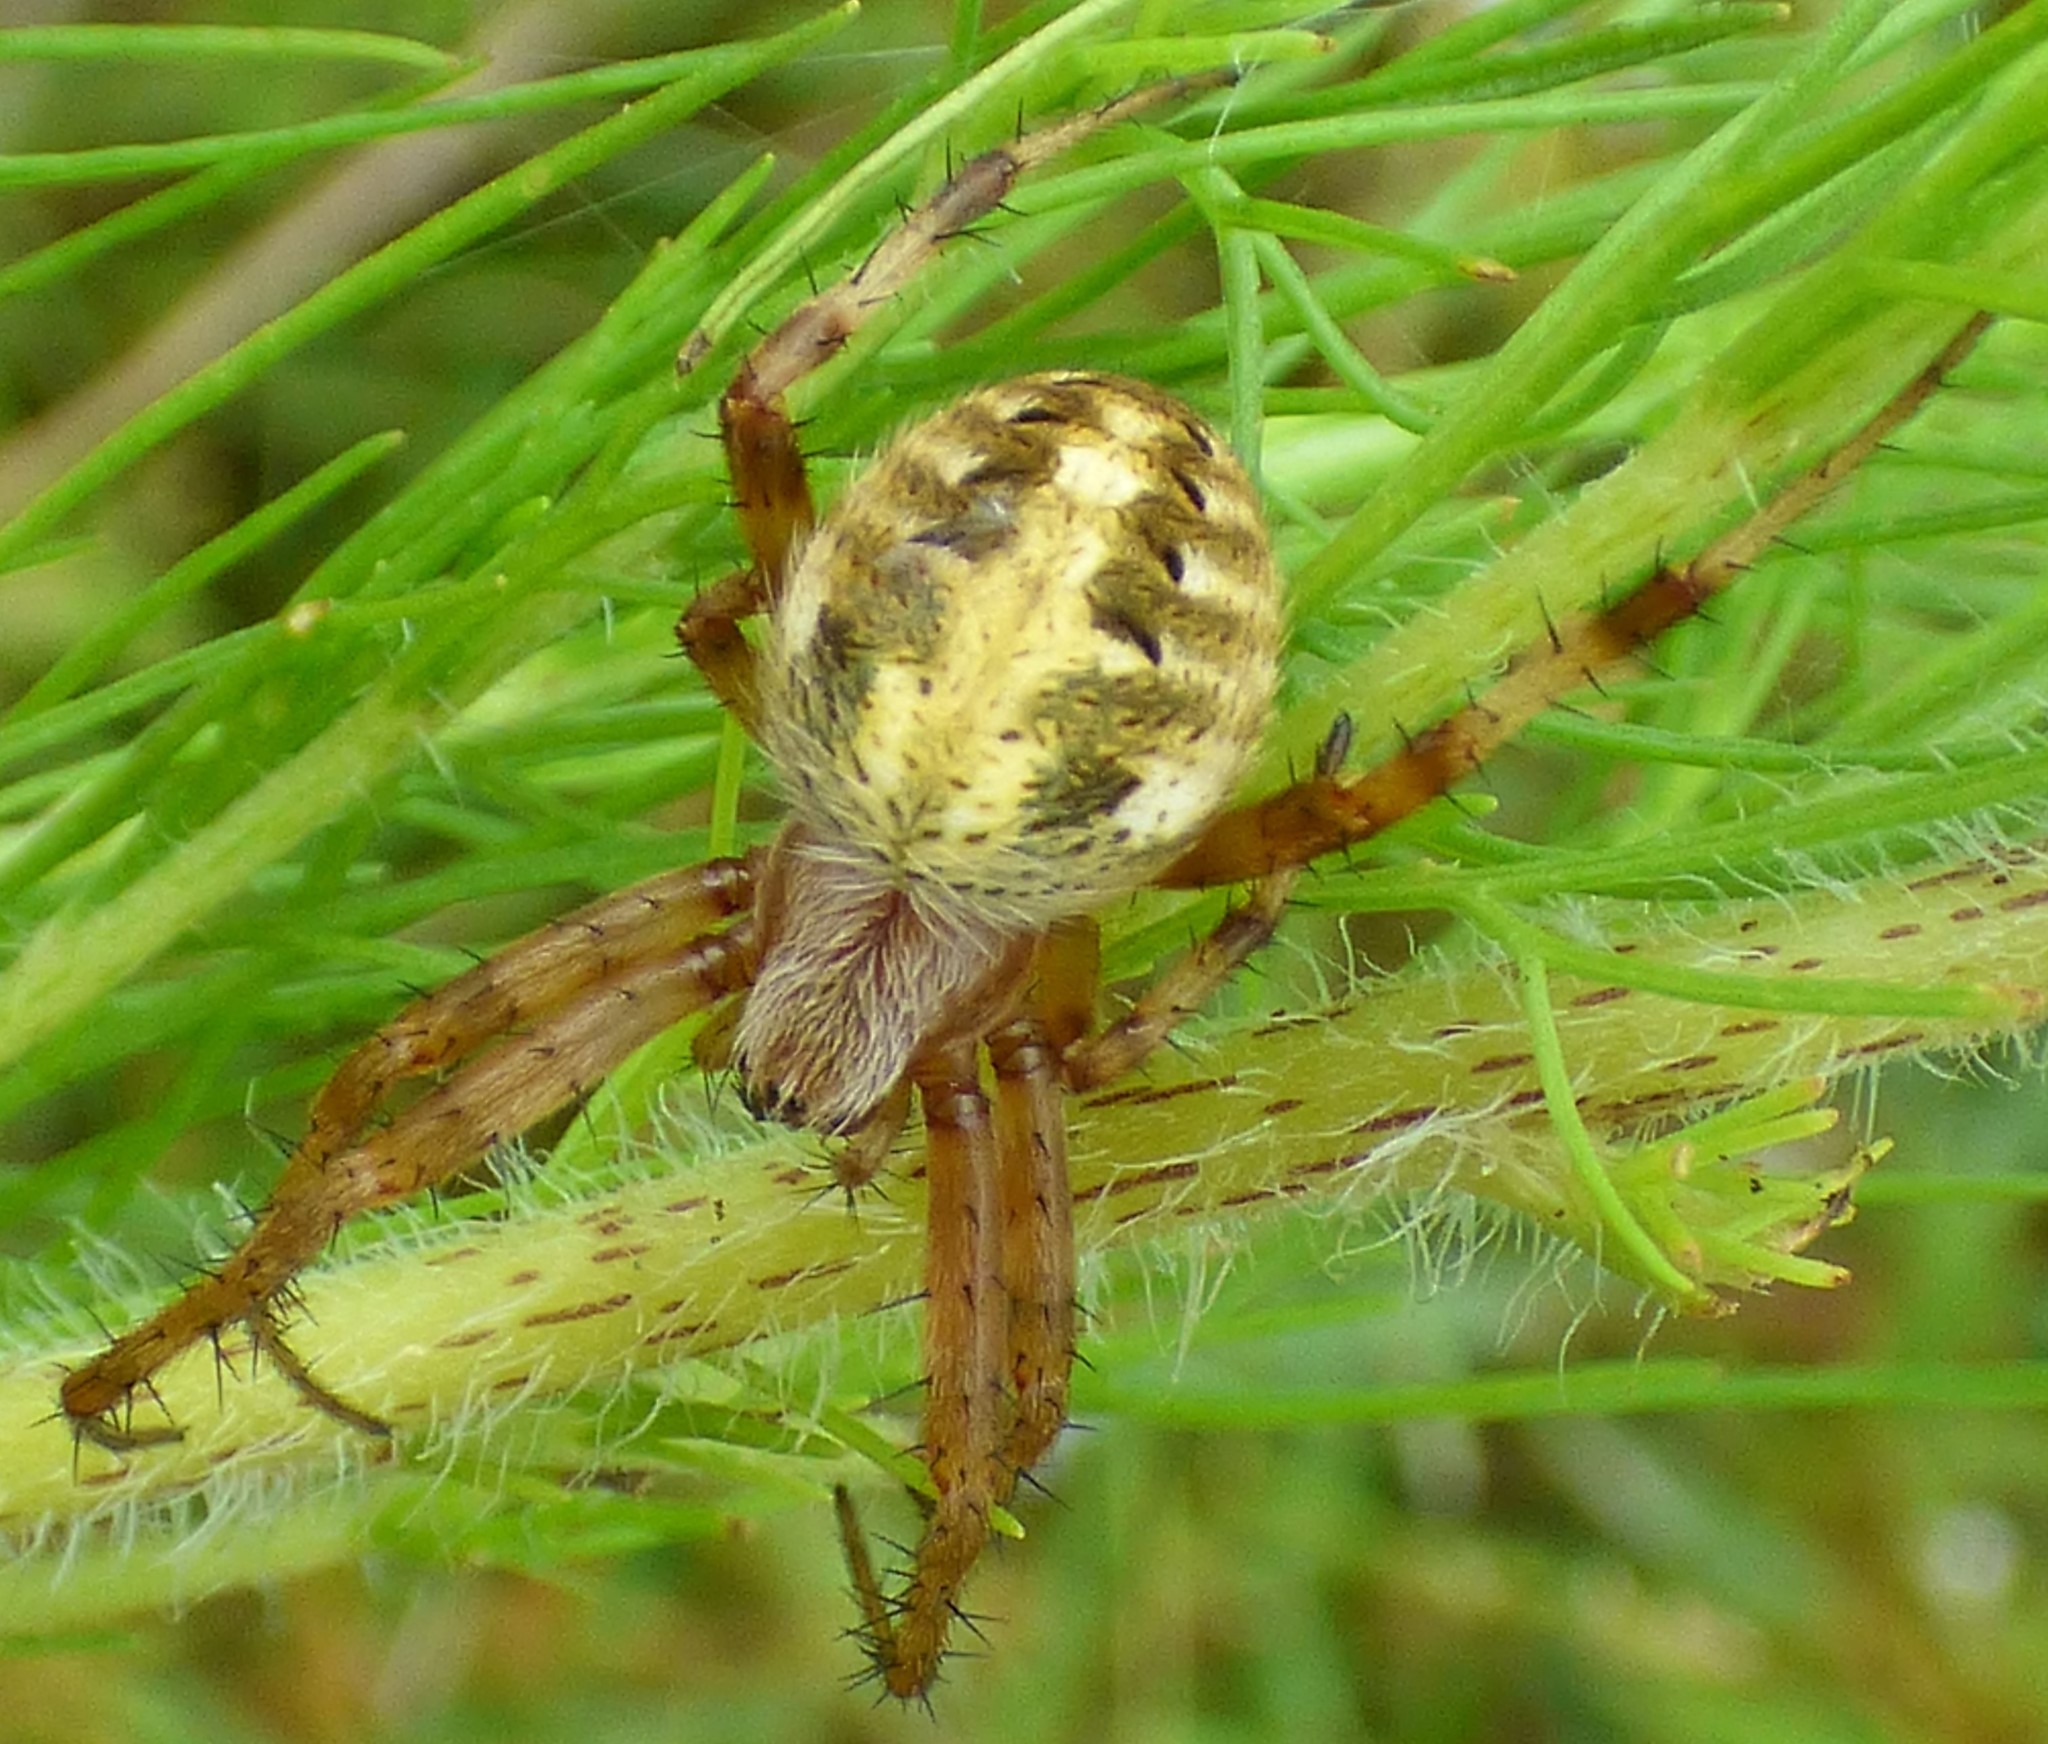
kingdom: Animalia
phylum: Arthropoda
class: Arachnida
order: Araneae
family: Araneidae
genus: Neoscona
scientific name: Neoscona arabesca
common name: Orb weavers
